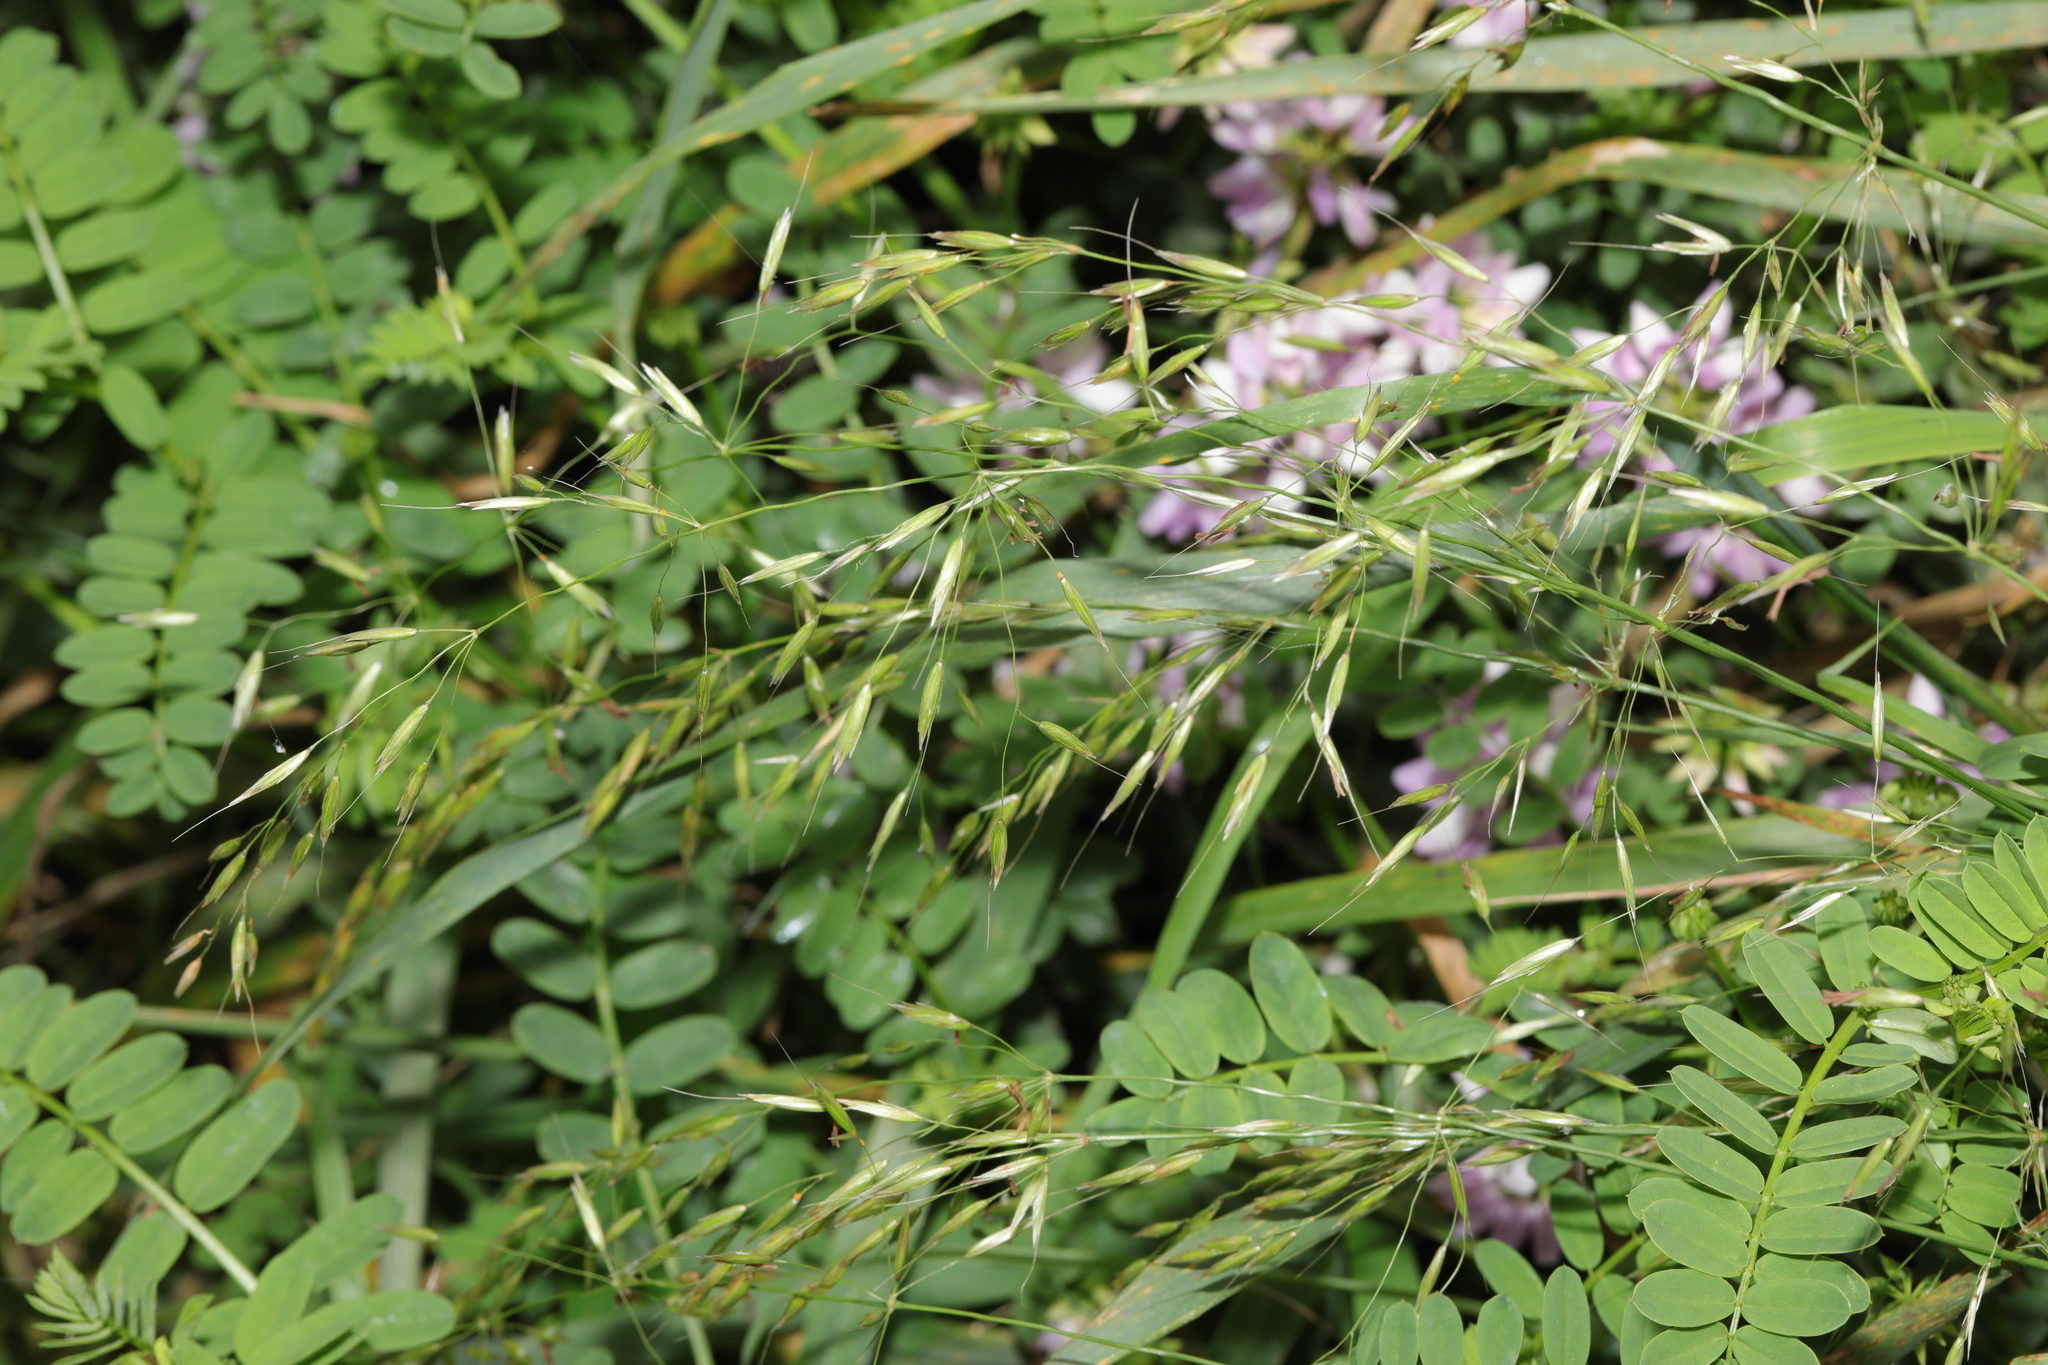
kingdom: Plantae
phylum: Tracheophyta
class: Liliopsida
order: Poales
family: Poaceae
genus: Arrhenatherum
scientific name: Arrhenatherum elatius
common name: Tall oatgrass
